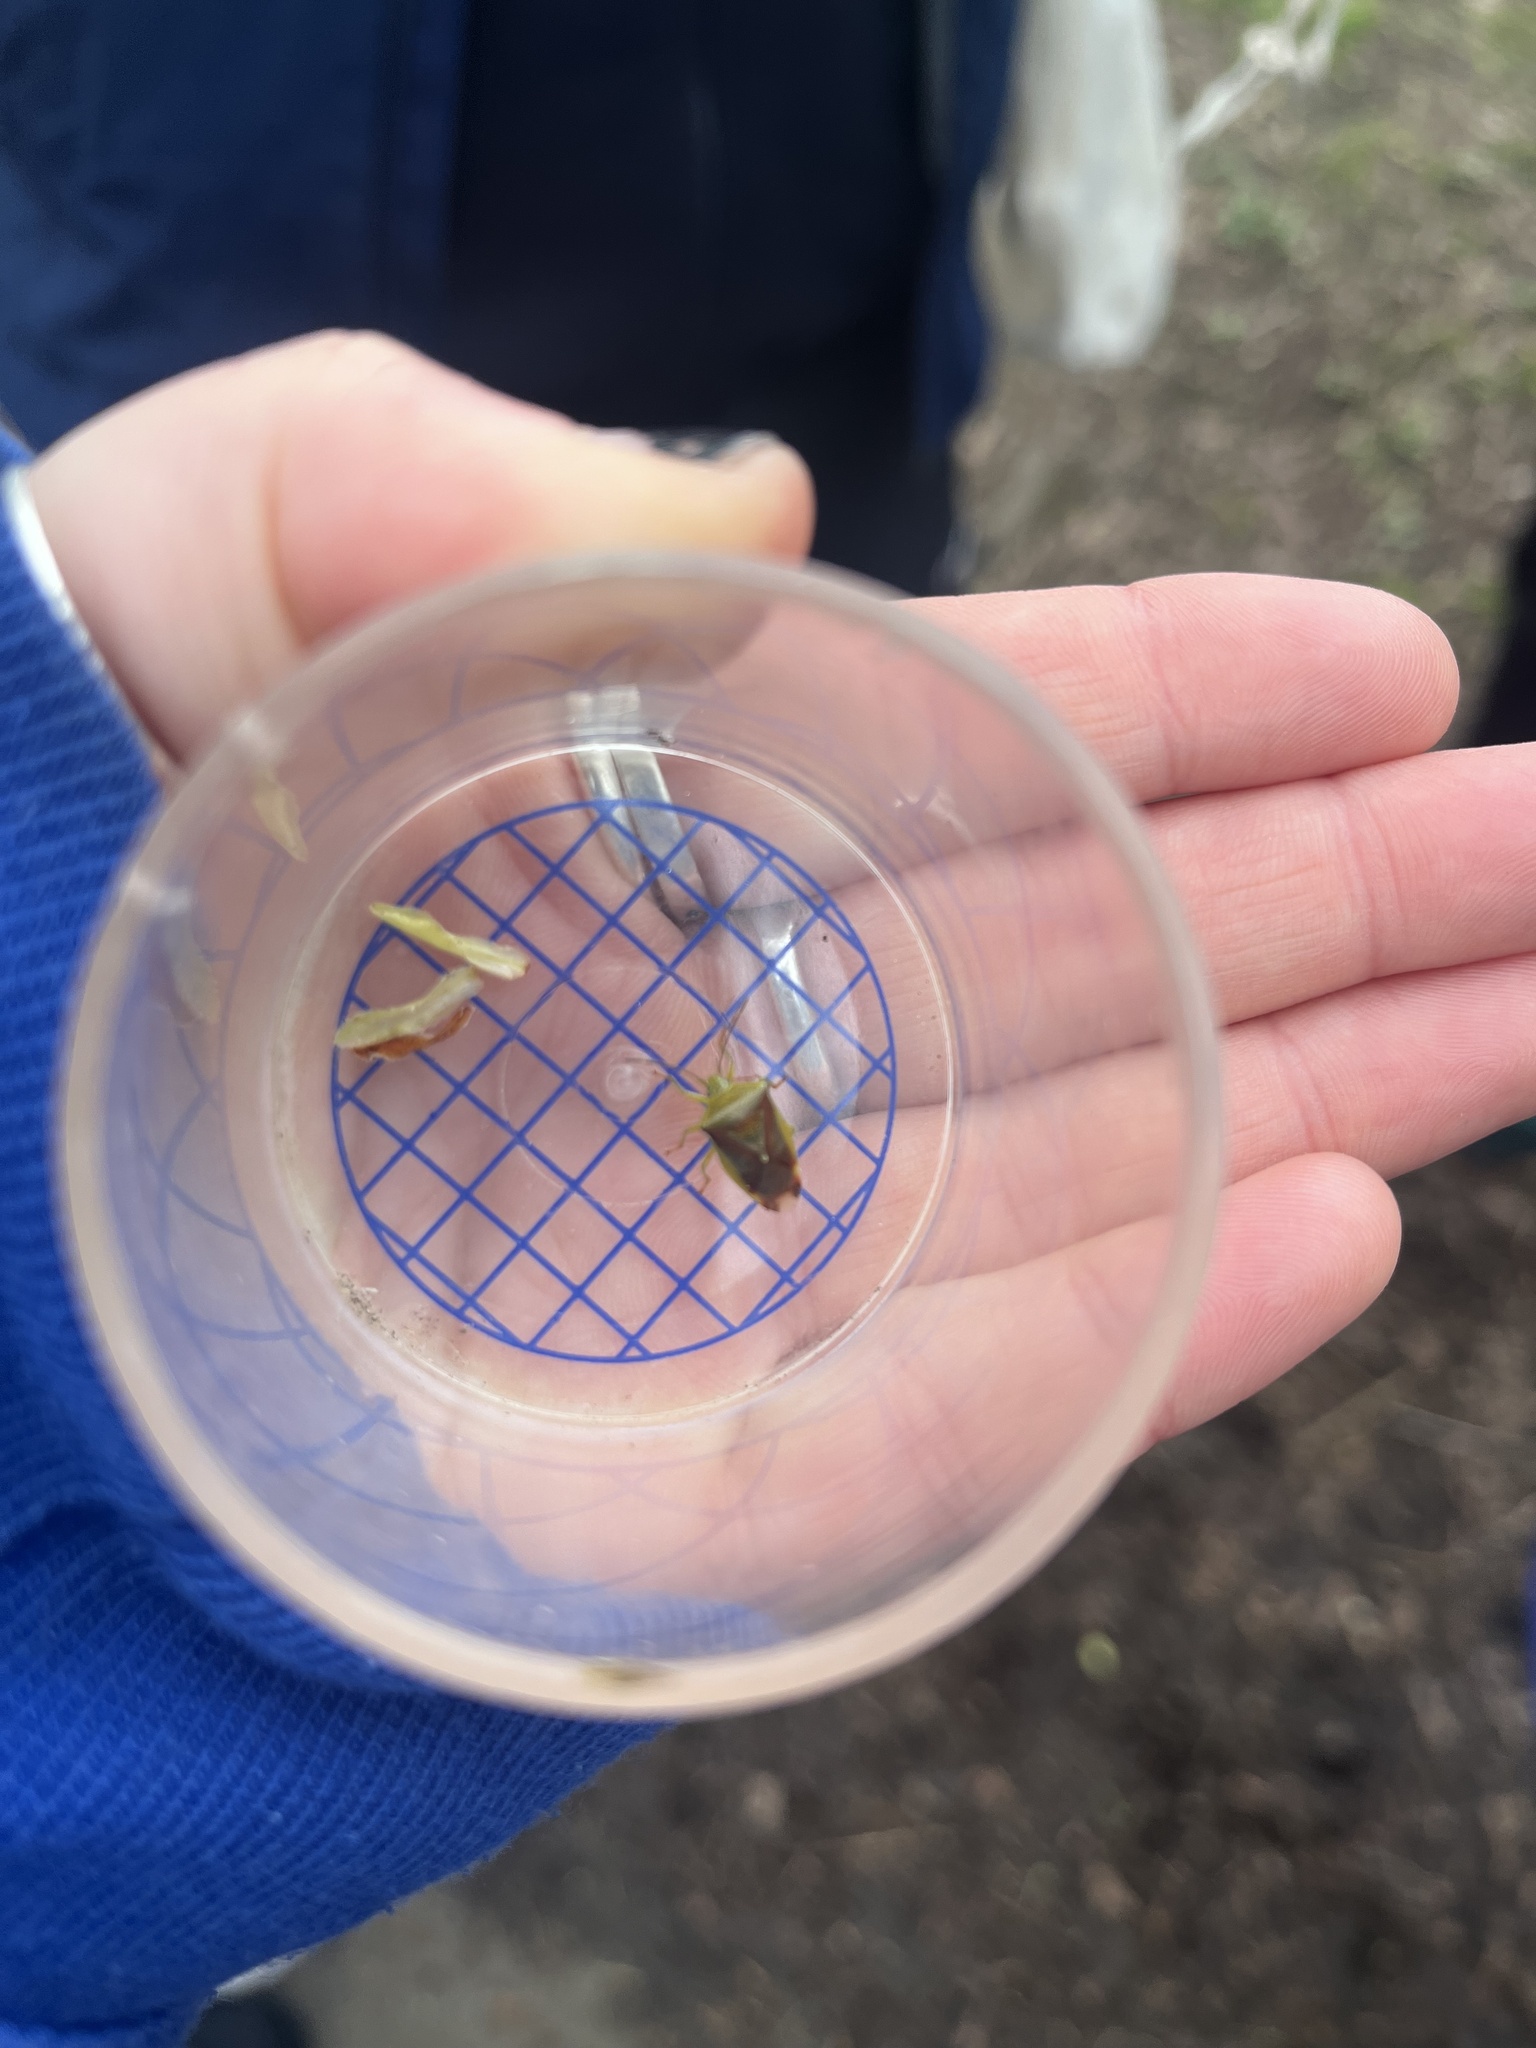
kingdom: Animalia
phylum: Arthropoda
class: Insecta
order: Hemiptera
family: Acanthosomatidae
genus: Elasmostethus
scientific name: Elasmostethus interstinctus
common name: Birch shieldbug
